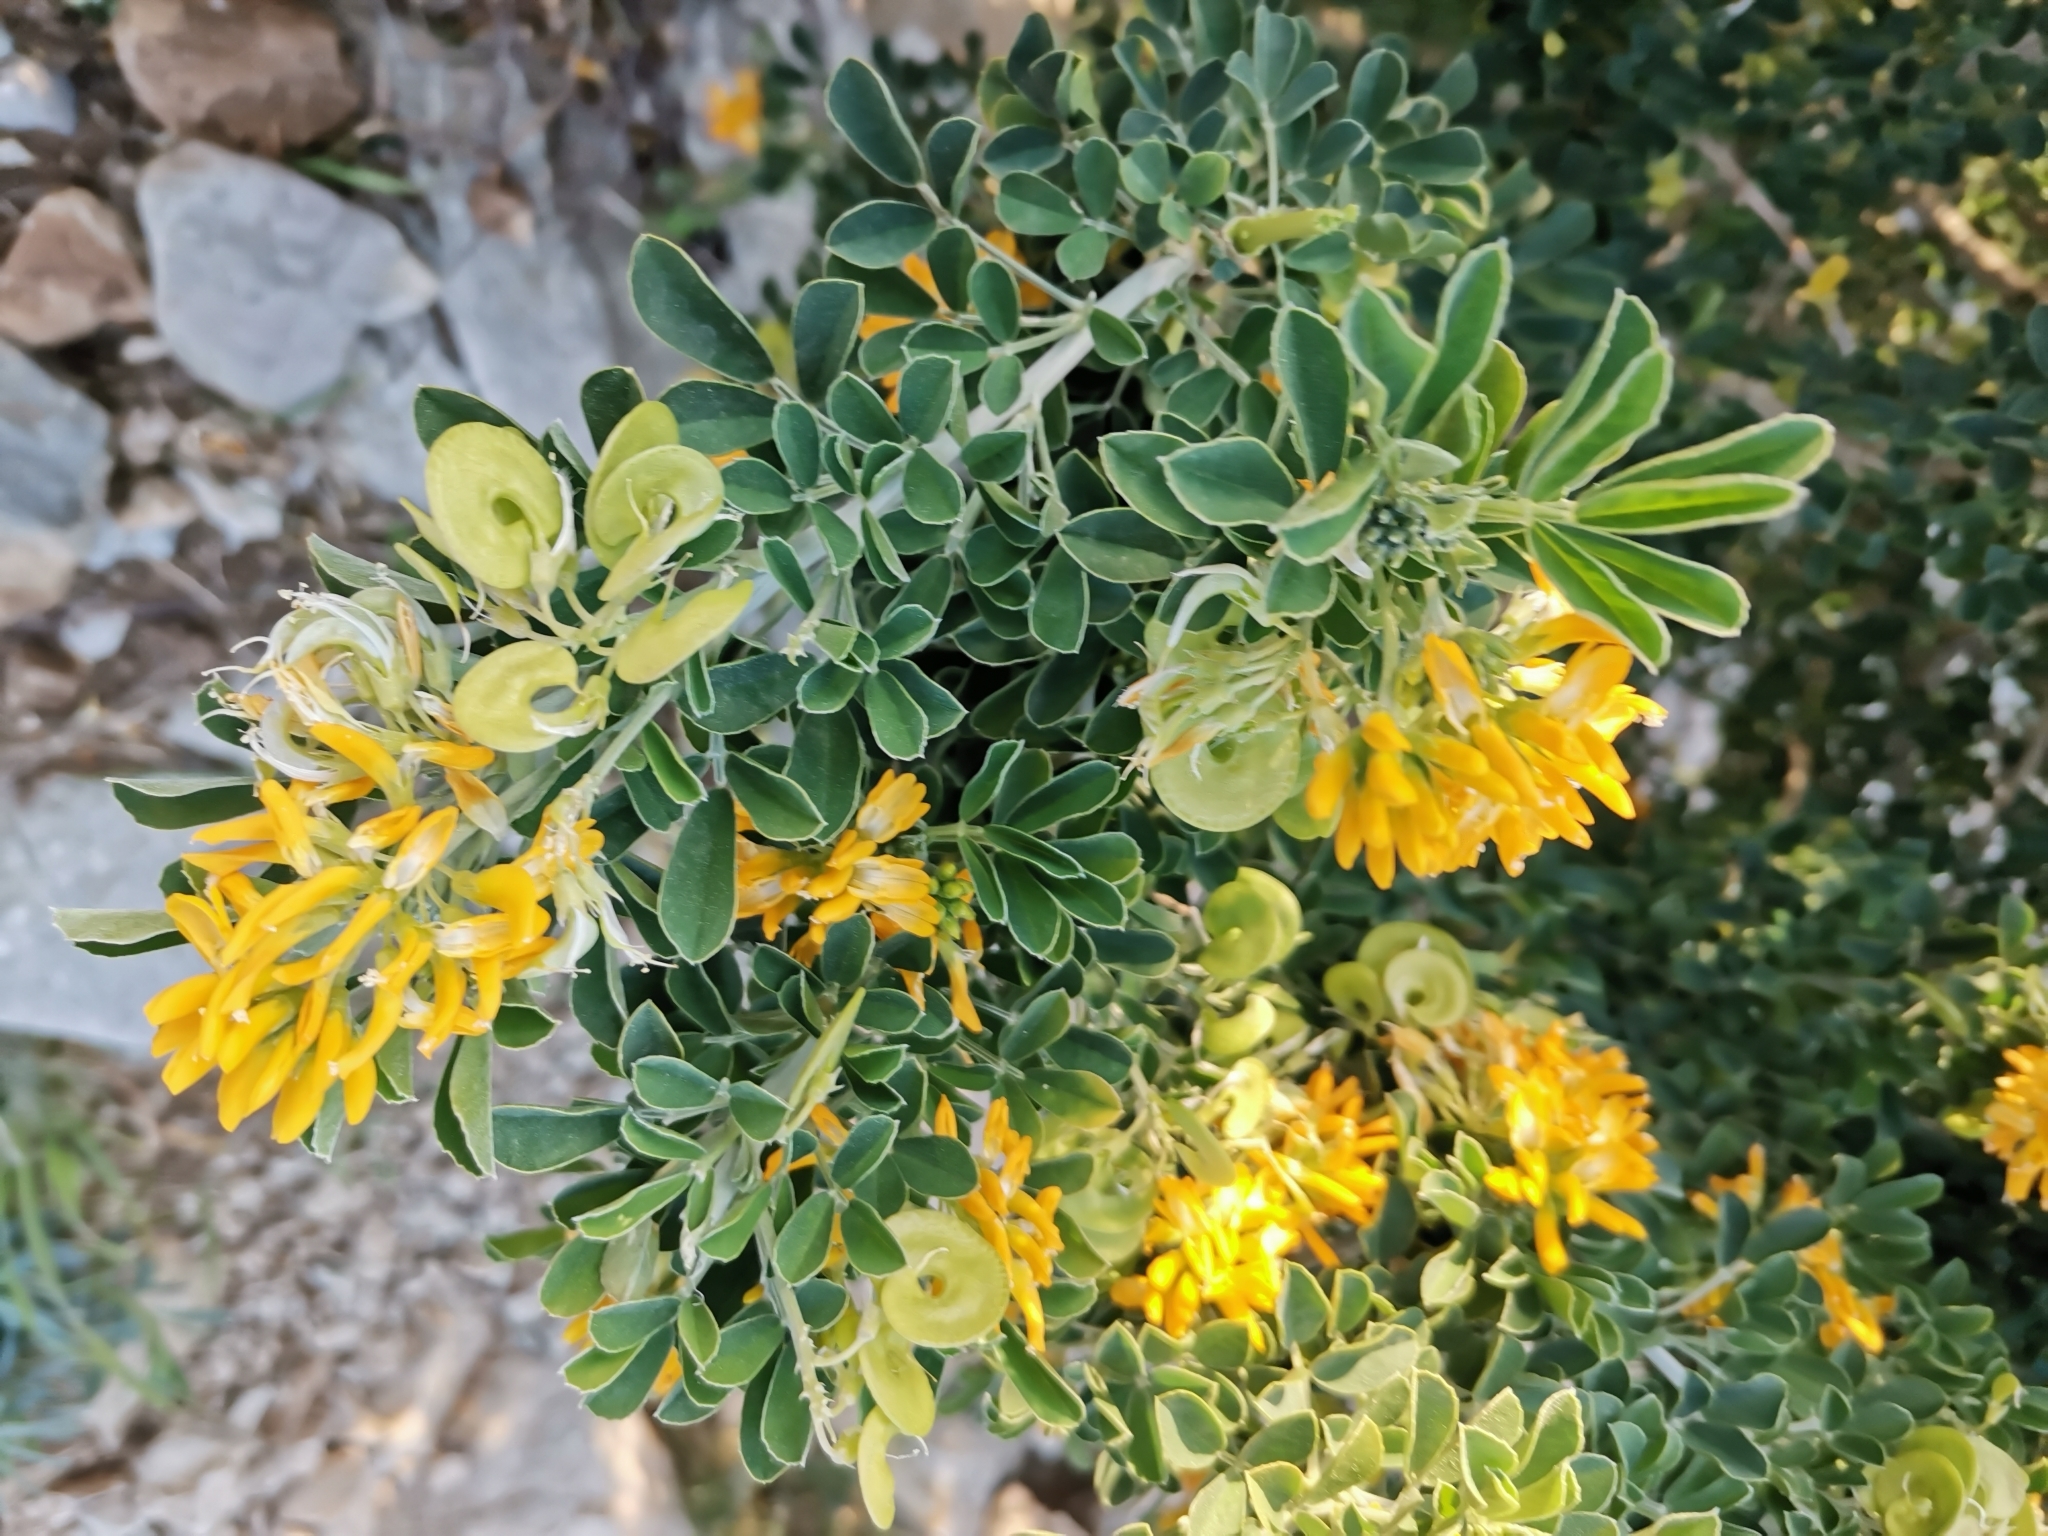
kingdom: Plantae
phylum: Tracheophyta
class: Magnoliopsida
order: Fabales
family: Fabaceae
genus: Medicago
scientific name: Medicago arborea
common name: Moon trefoil
